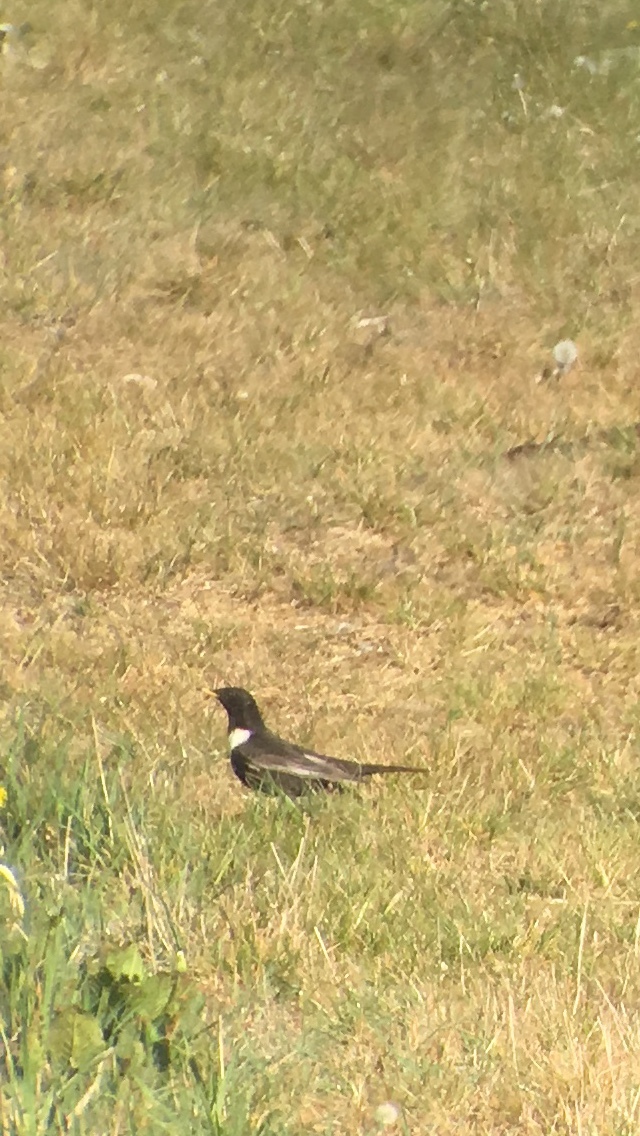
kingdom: Animalia
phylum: Chordata
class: Aves
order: Passeriformes
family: Turdidae
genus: Turdus
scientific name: Turdus torquatus
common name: Ring ouzel
